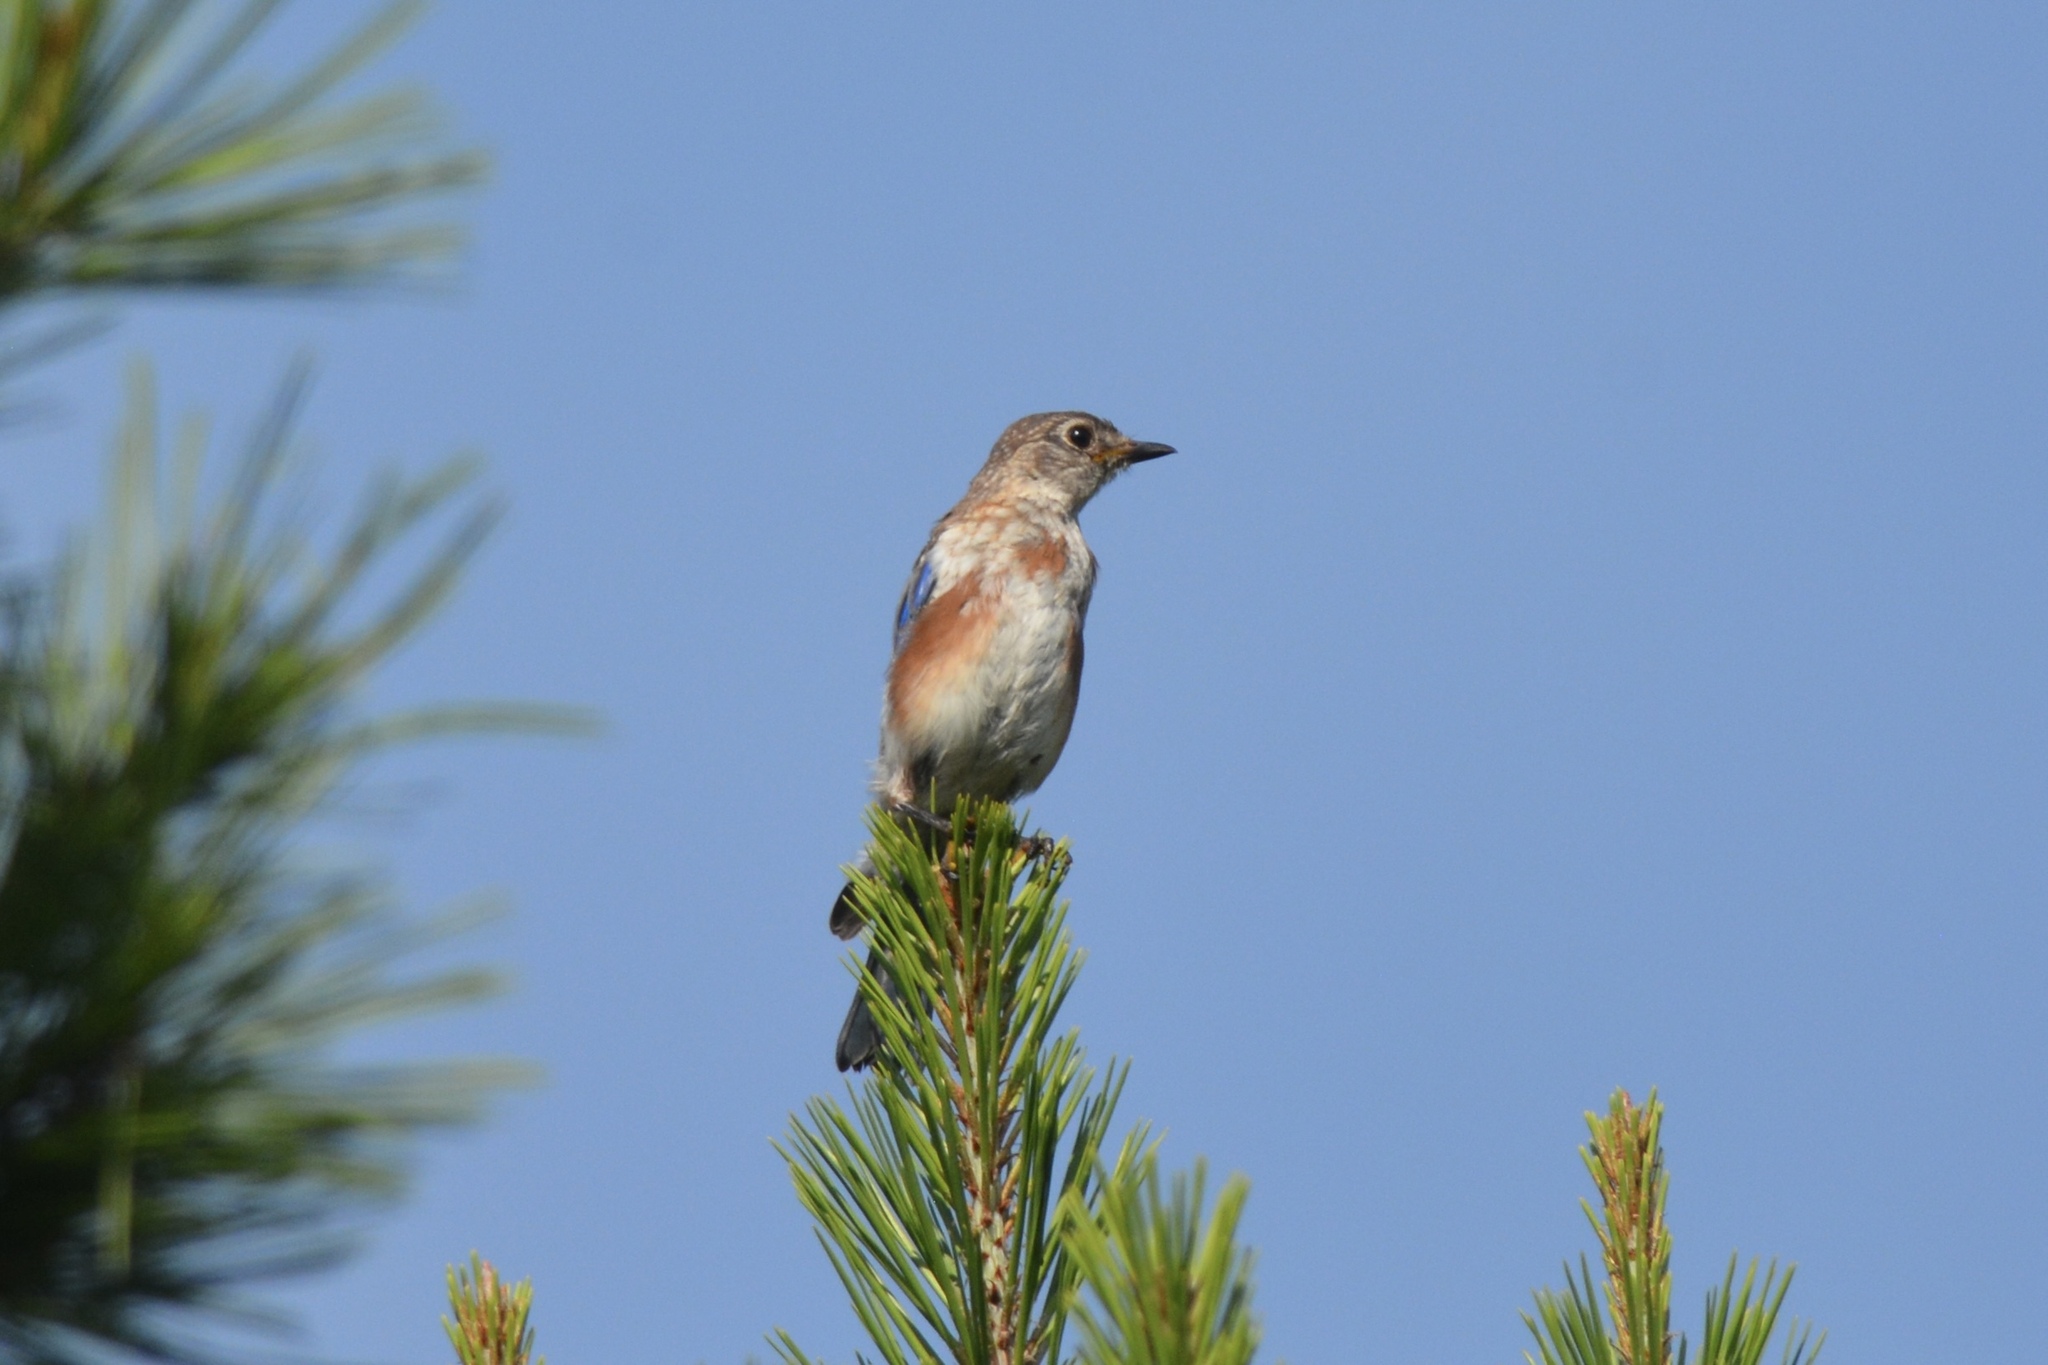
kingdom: Animalia
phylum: Chordata
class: Aves
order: Passeriformes
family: Turdidae
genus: Sialia
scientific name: Sialia sialis
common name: Eastern bluebird
